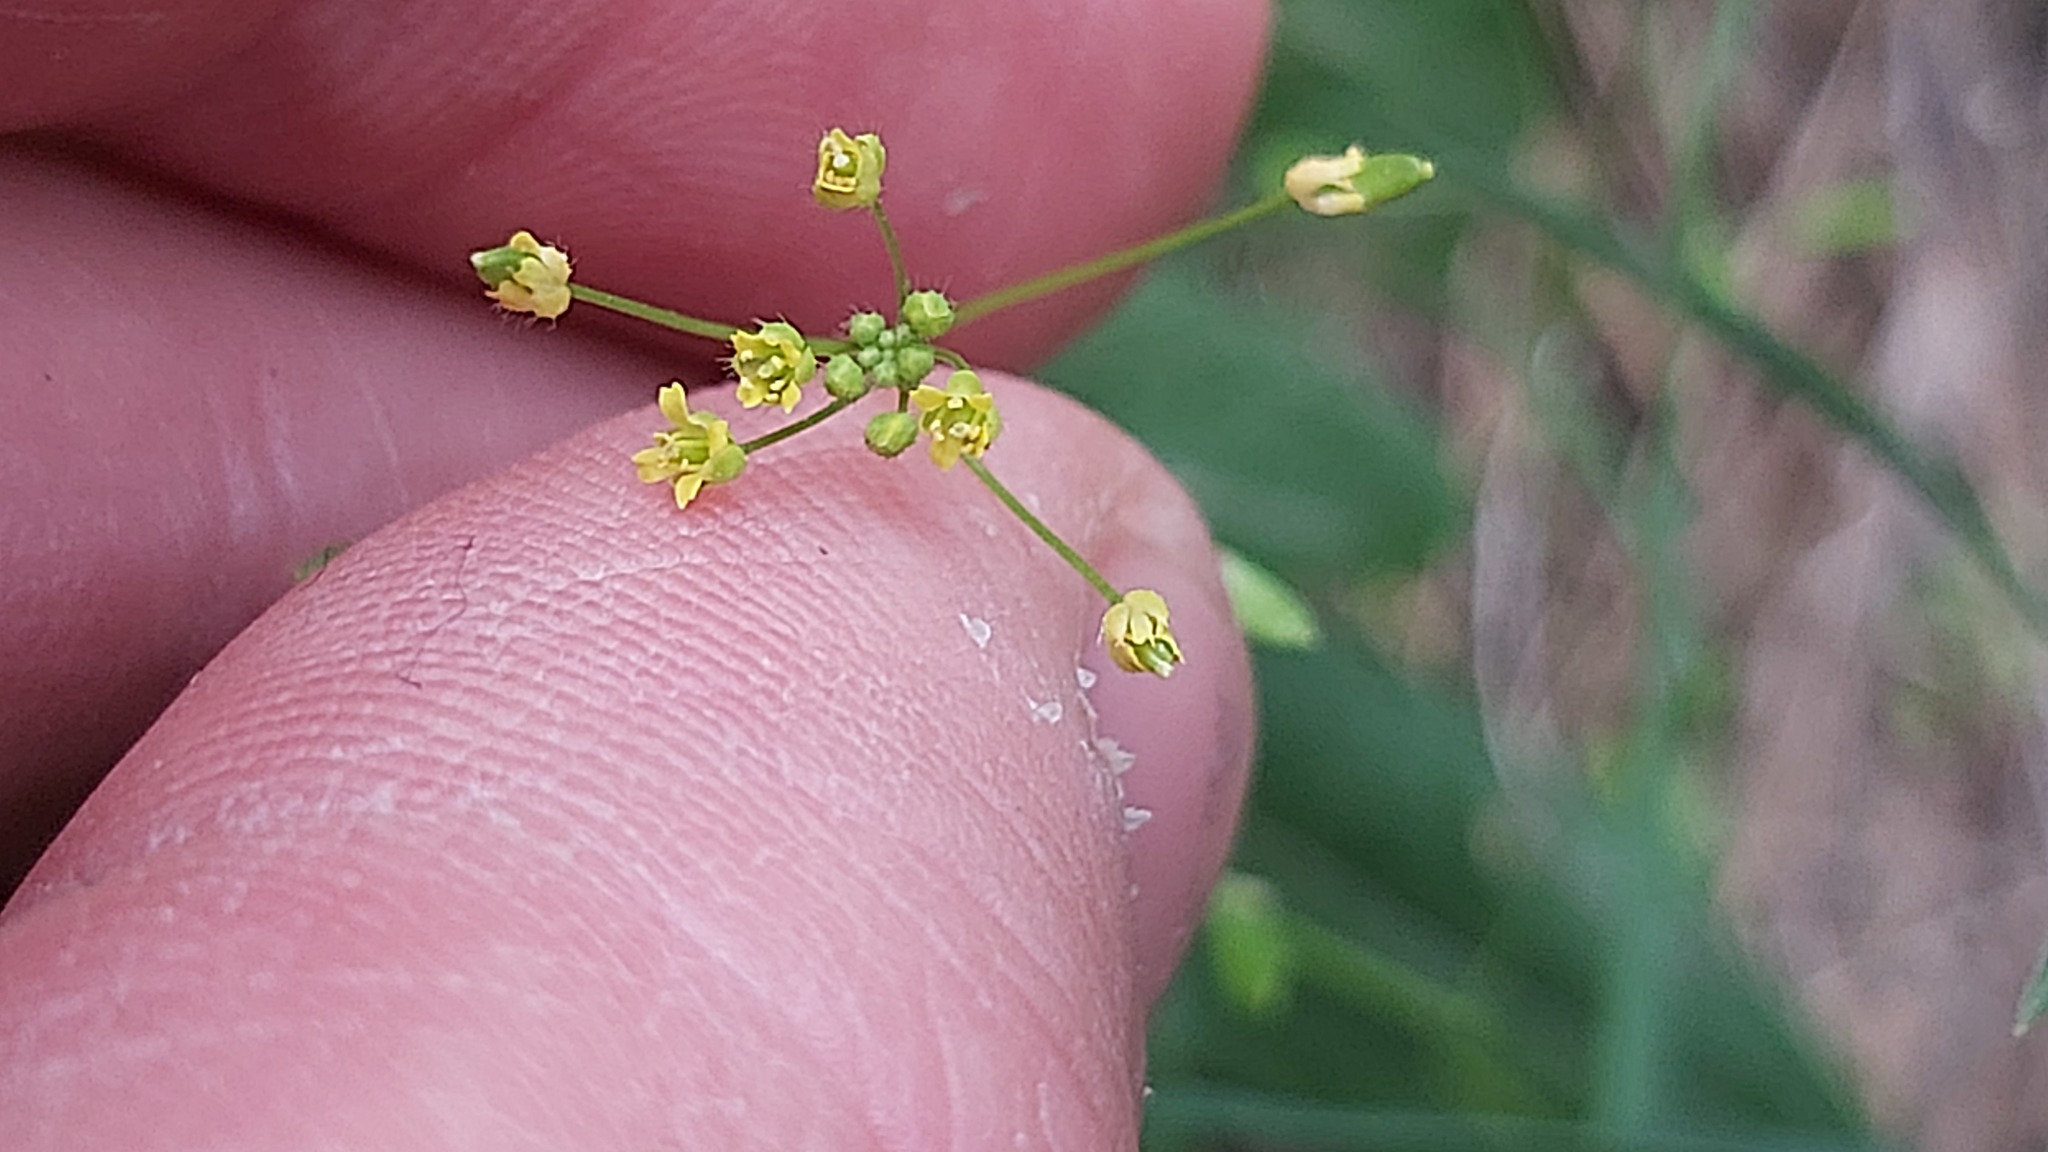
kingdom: Plantae
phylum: Tracheophyta
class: Magnoliopsida
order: Brassicales
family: Brassicaceae
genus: Draba
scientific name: Draba nemorosa
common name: Wood whitlow-grass
